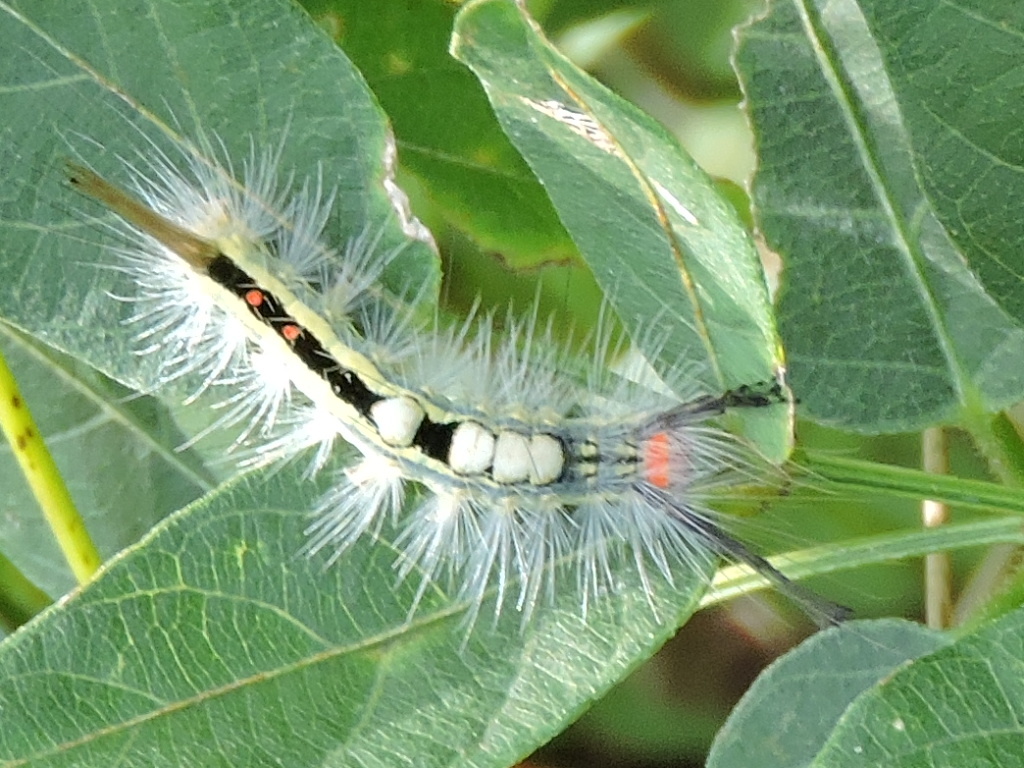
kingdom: Animalia
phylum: Arthropoda
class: Insecta
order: Lepidoptera
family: Erebidae
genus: Orgyia
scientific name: Orgyia leucostigma
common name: White-marked tussock moth
